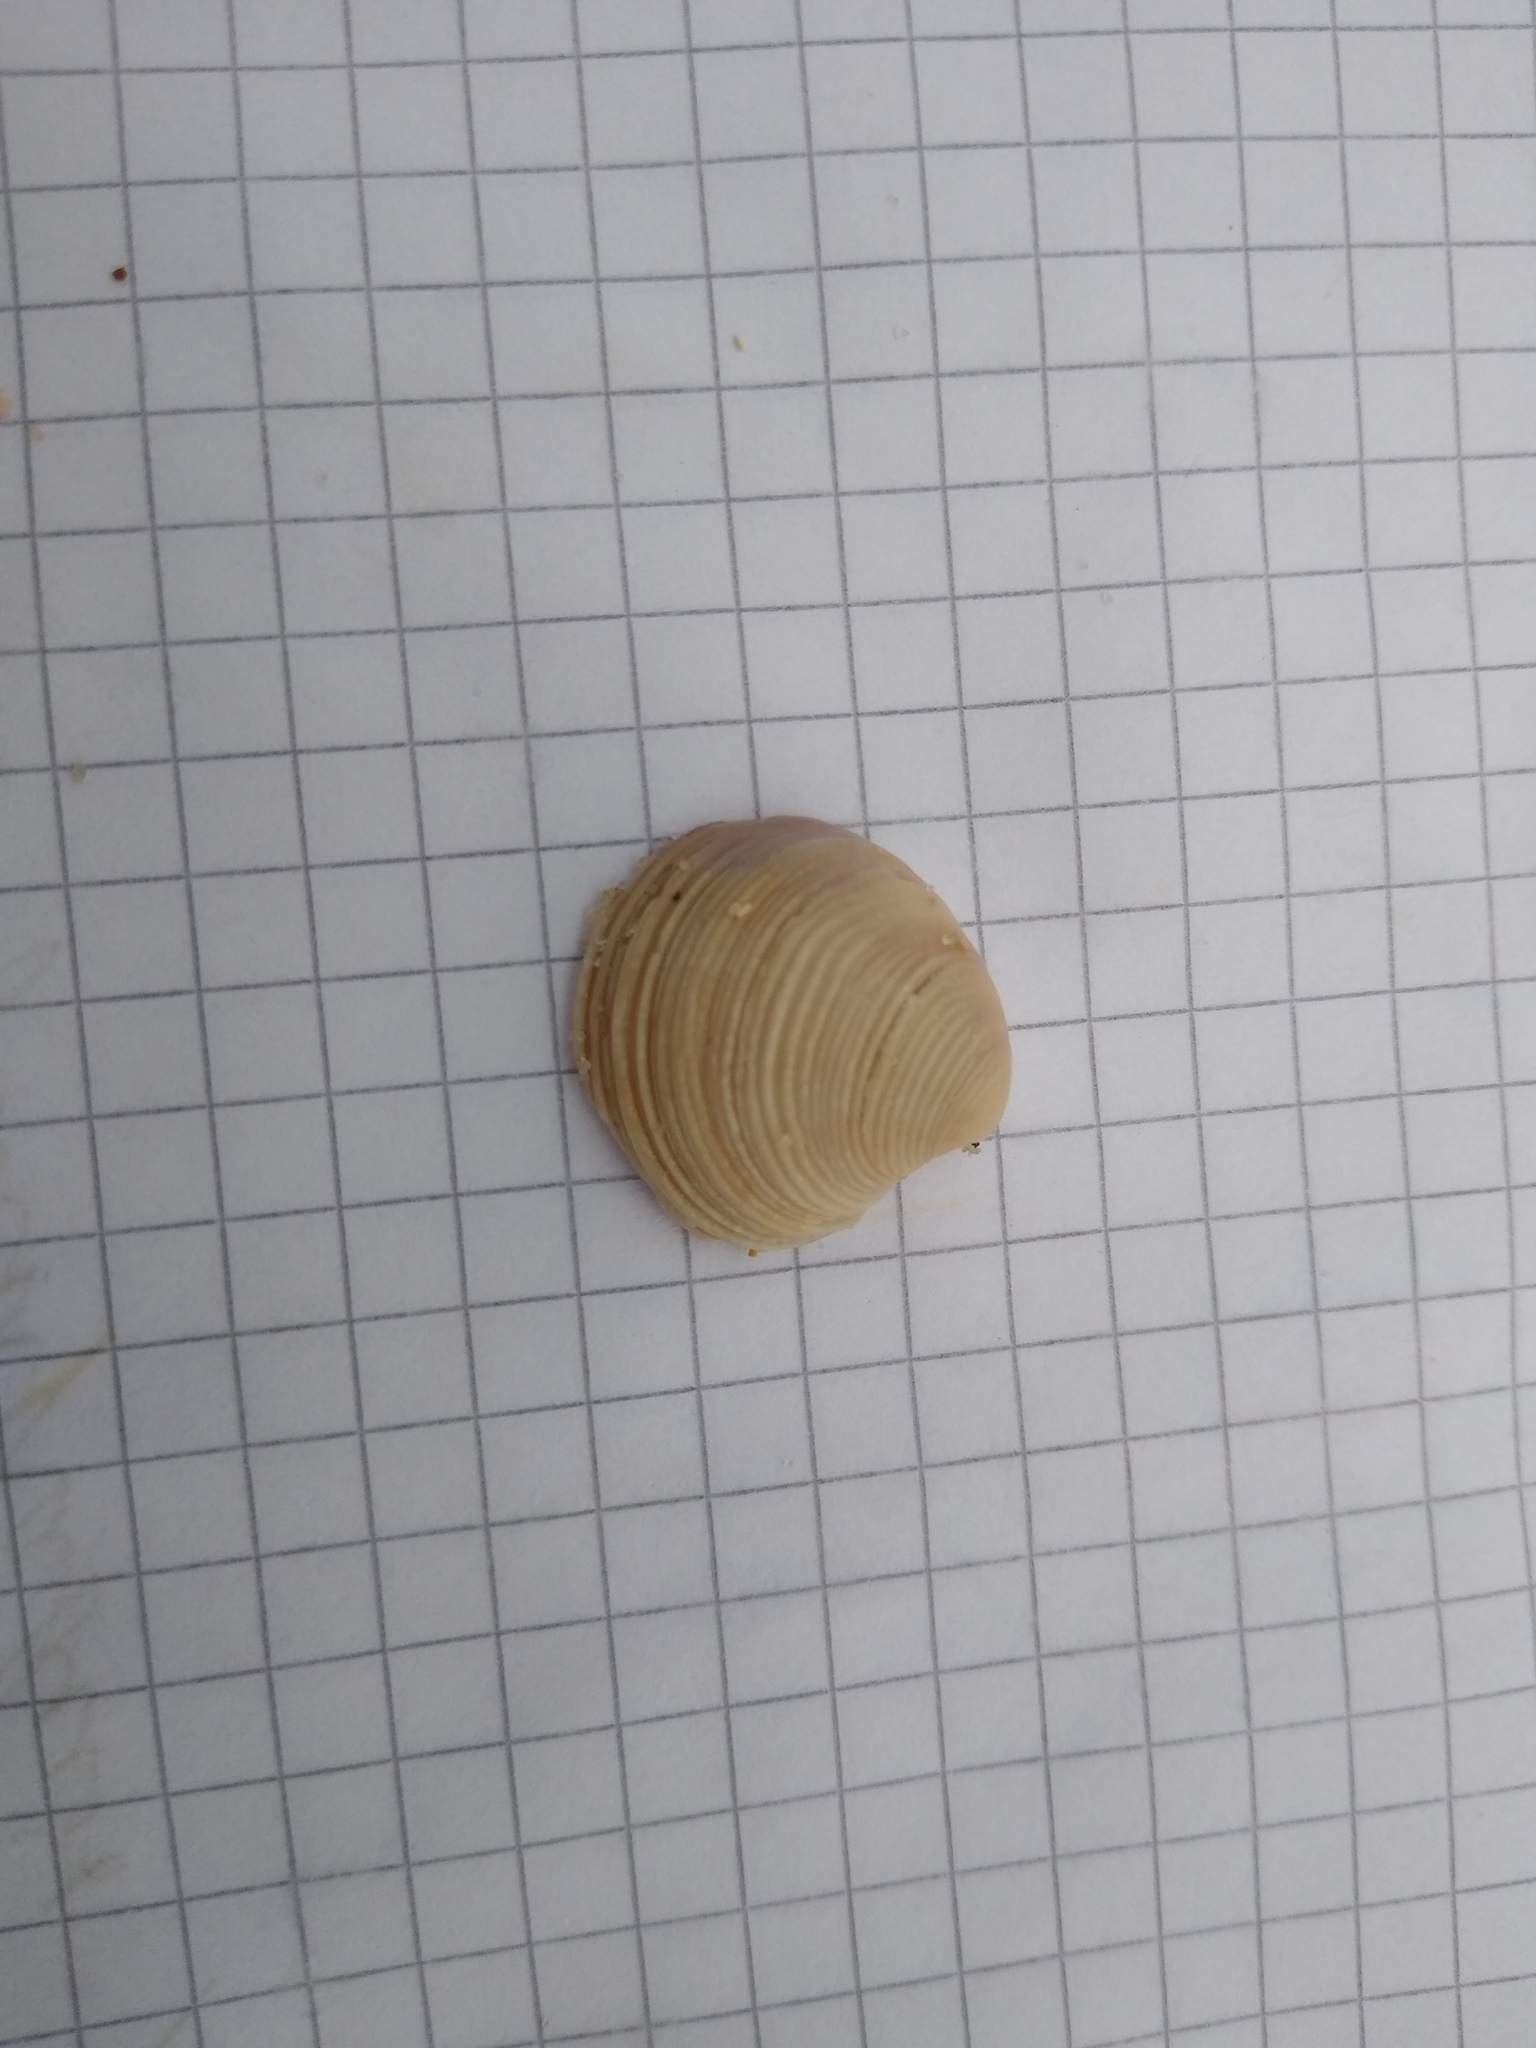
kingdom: Animalia
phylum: Mollusca
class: Bivalvia
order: Venerida
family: Veneridae
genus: Chamelea
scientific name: Chamelea gallina
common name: Chicken venus
